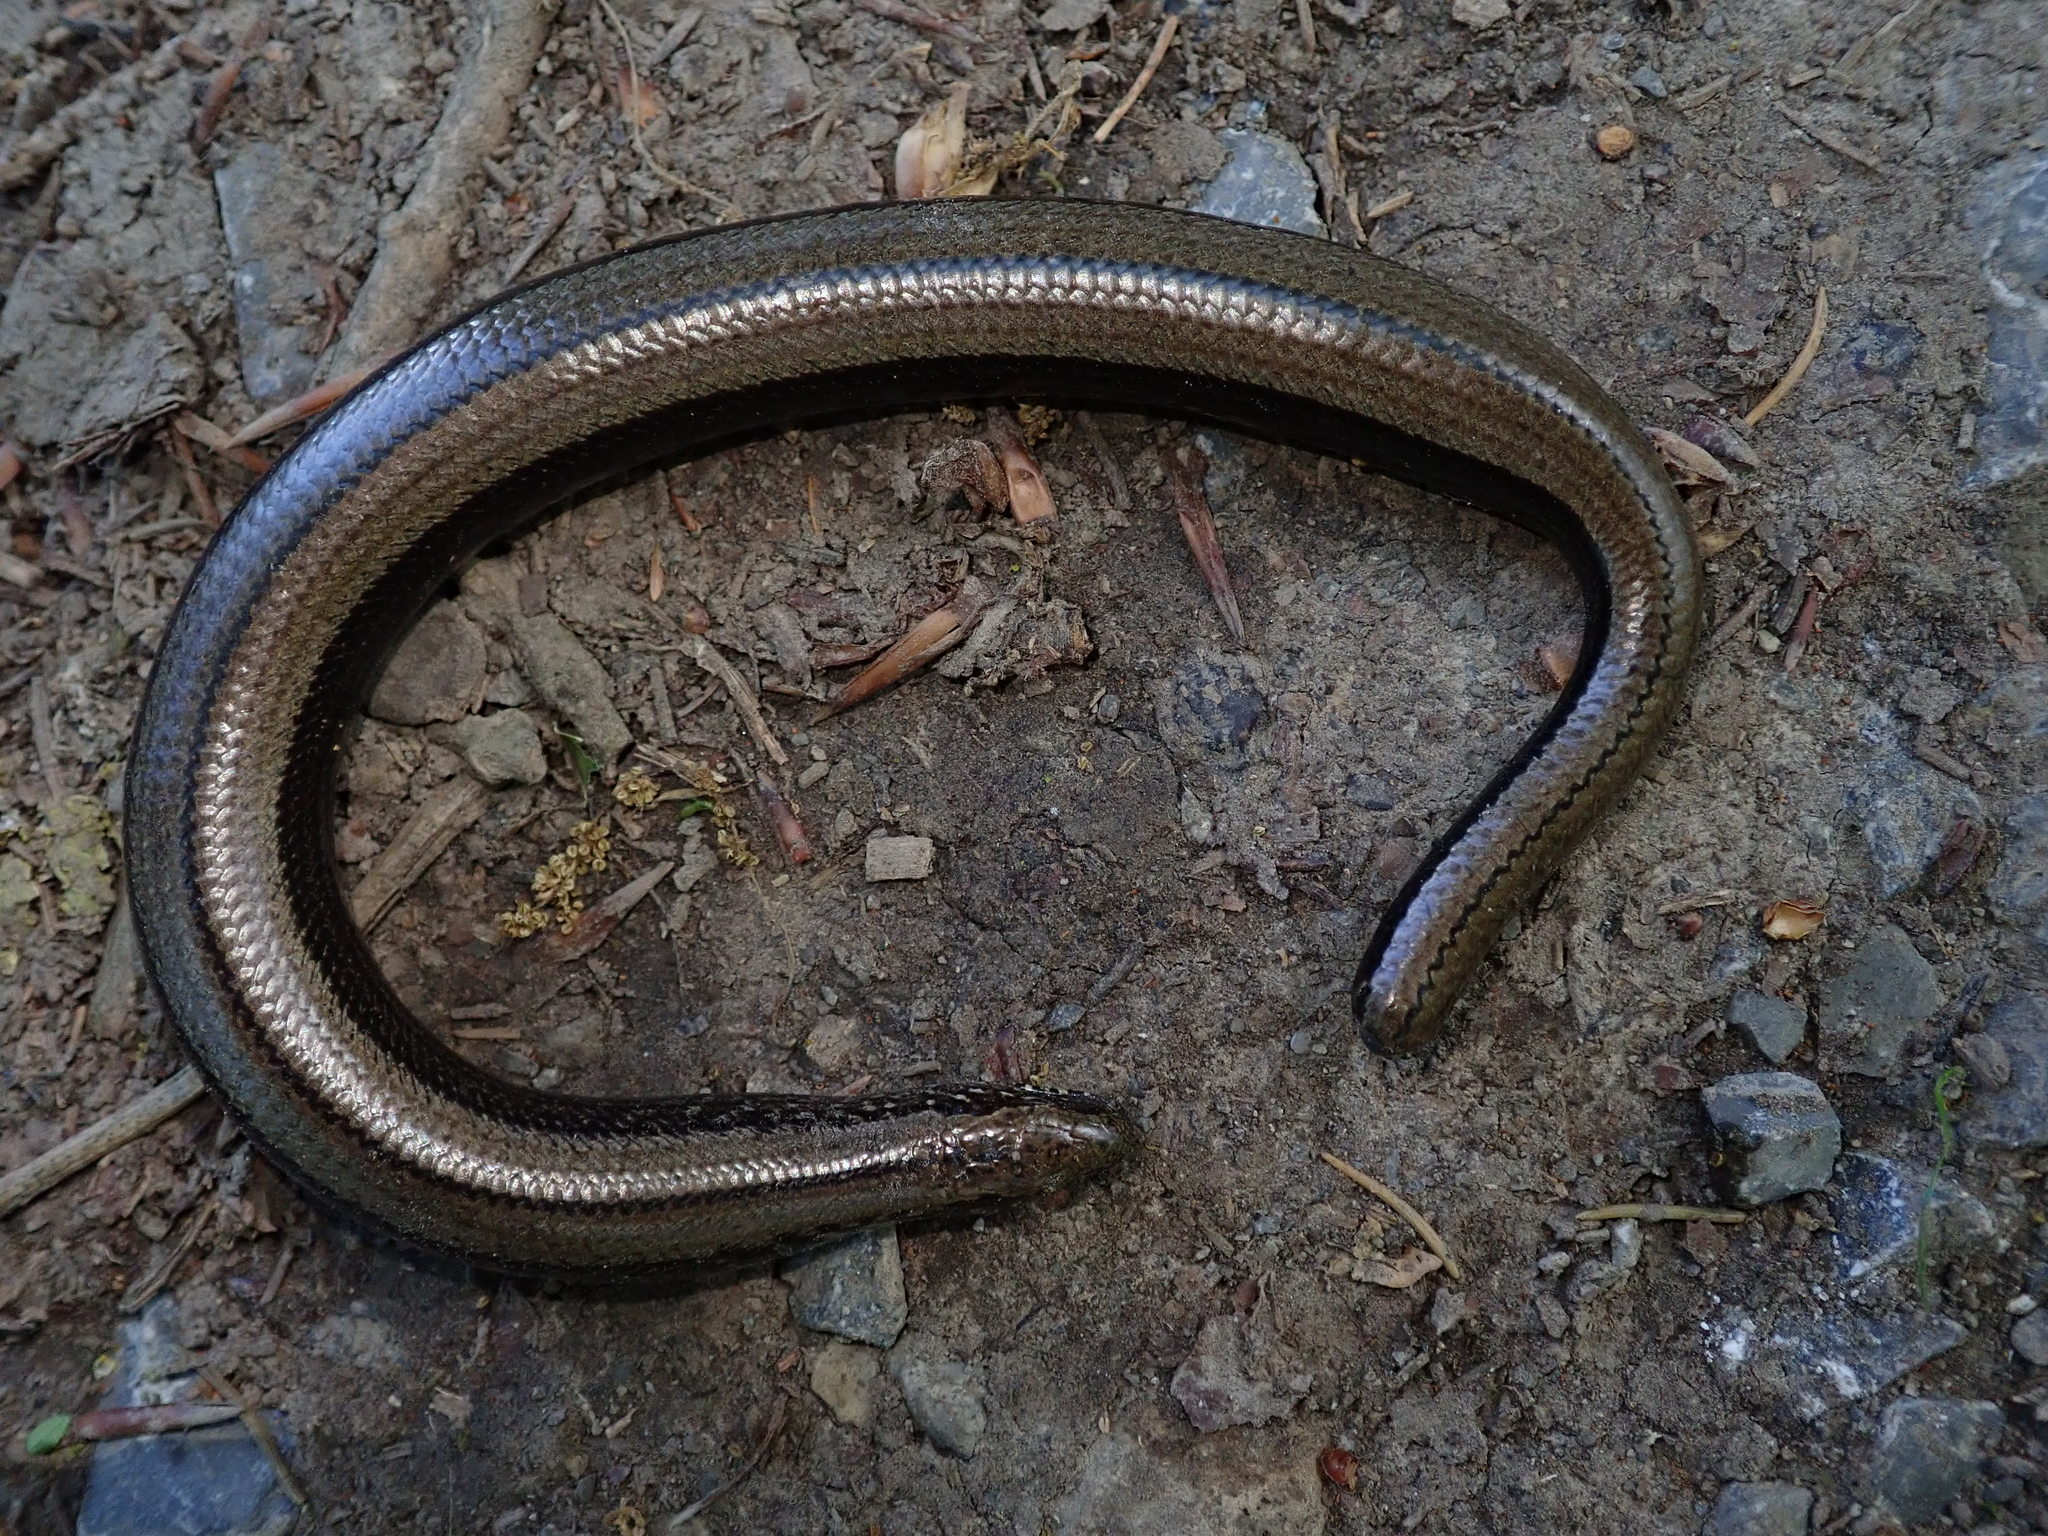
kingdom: Animalia
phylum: Chordata
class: Squamata
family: Anguidae
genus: Anguis
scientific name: Anguis fragilis
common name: Slow worm
